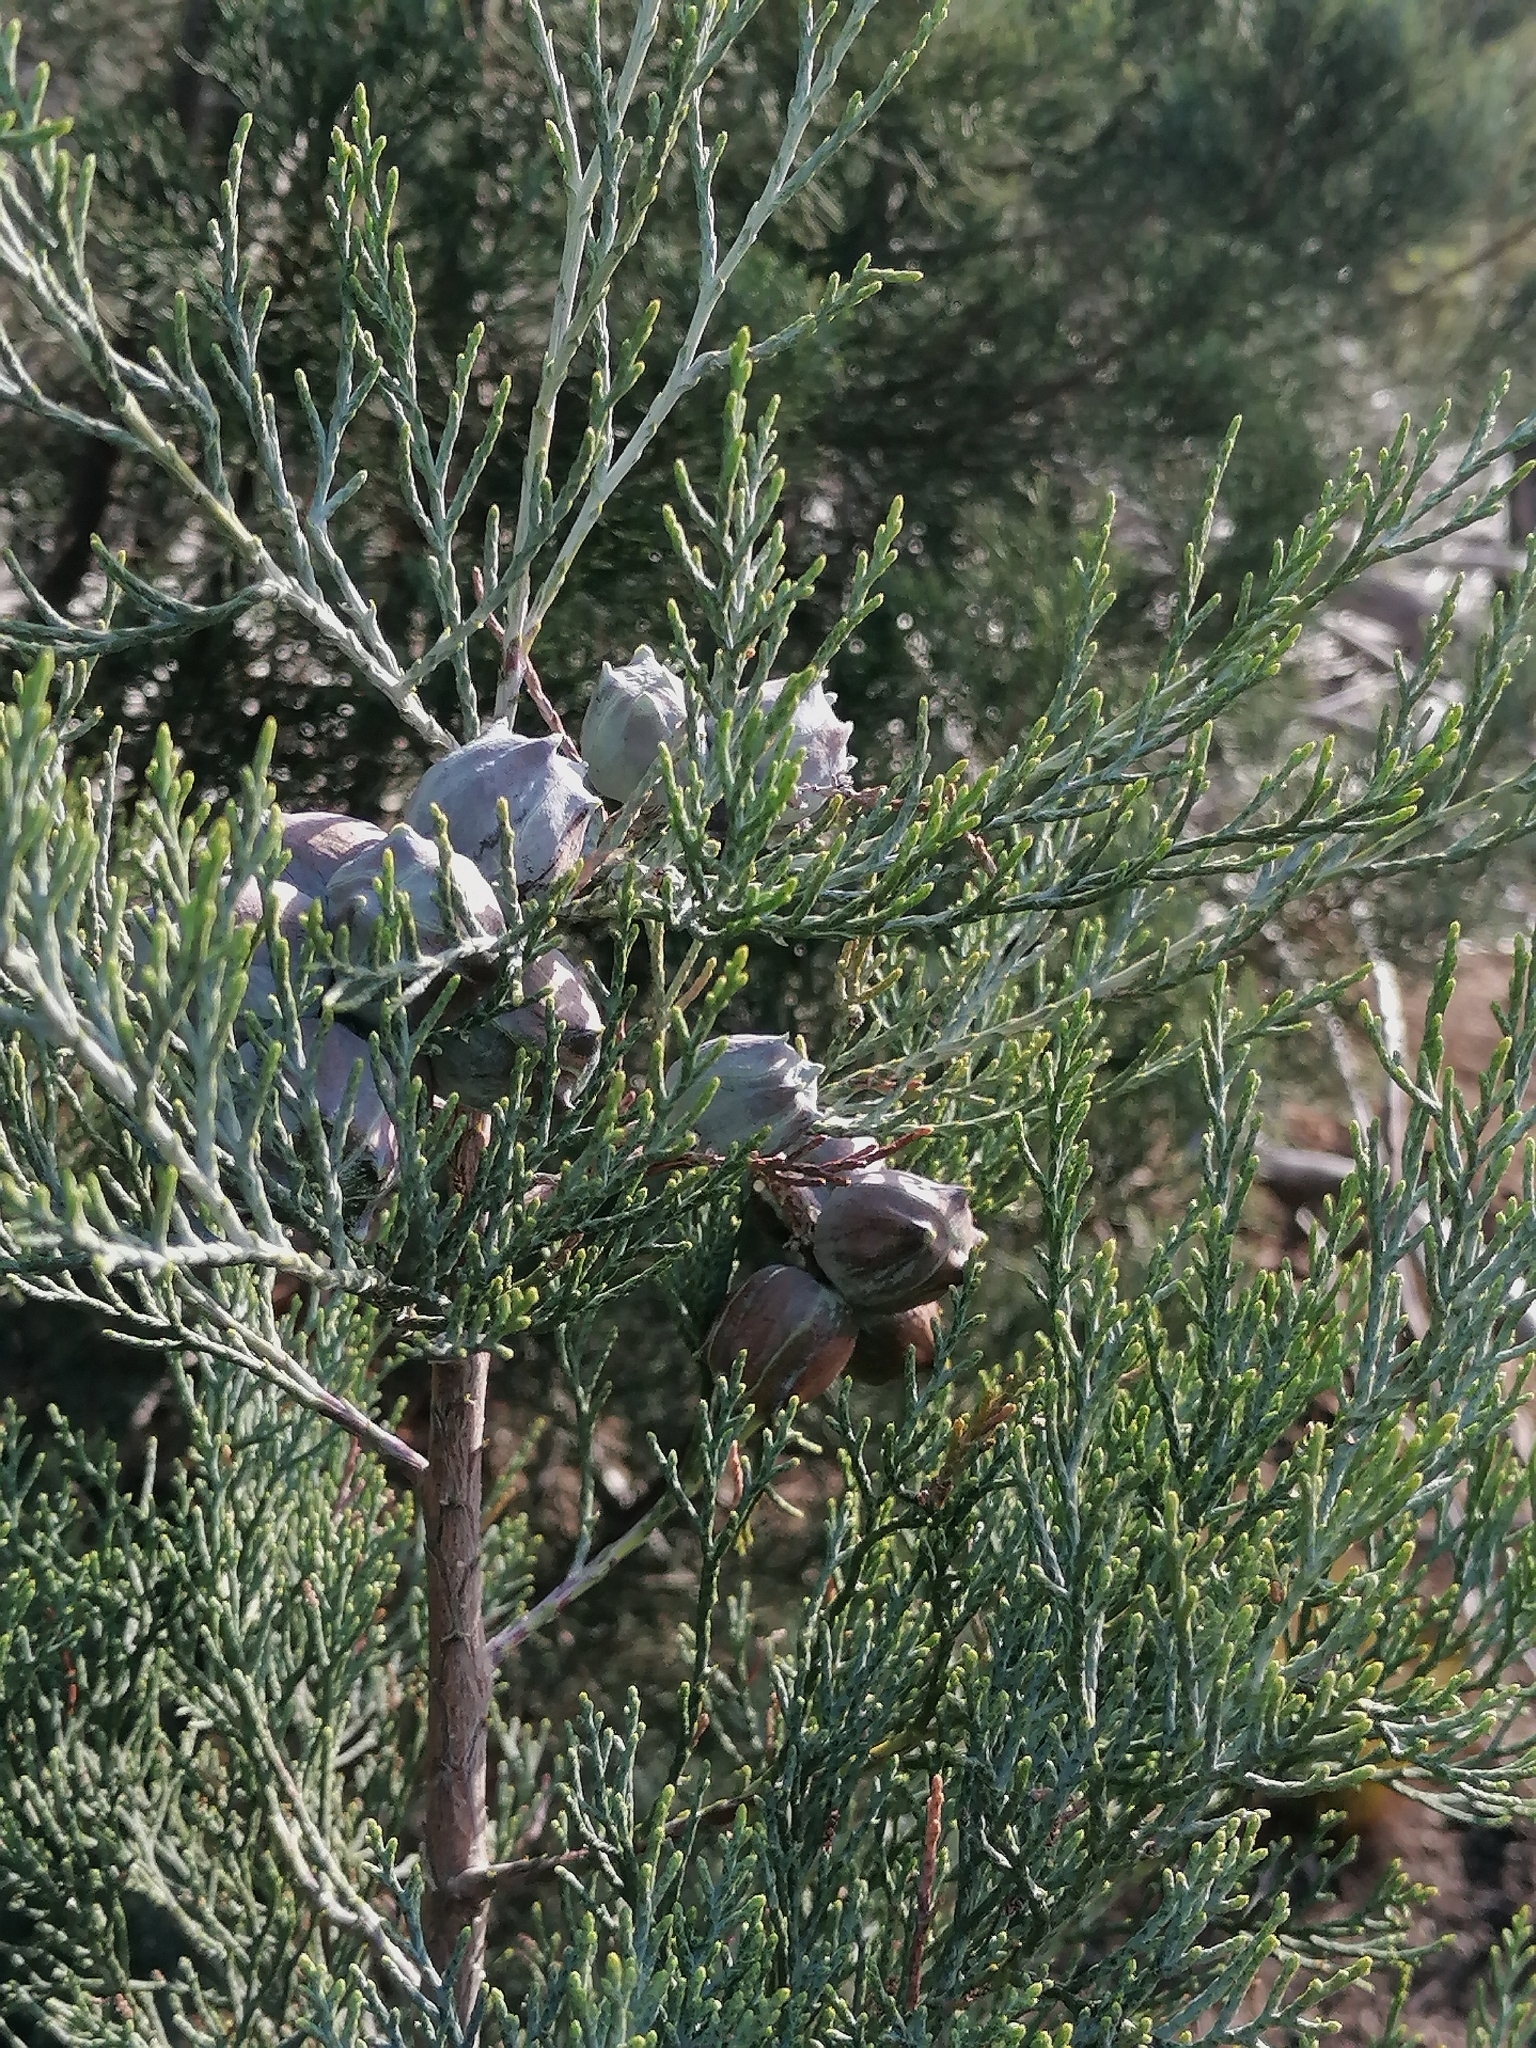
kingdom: Plantae
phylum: Tracheophyta
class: Pinopsida
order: Pinales
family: Cupressaceae
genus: Widdringtonia
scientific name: Widdringtonia nodiflora
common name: Cape cypress
